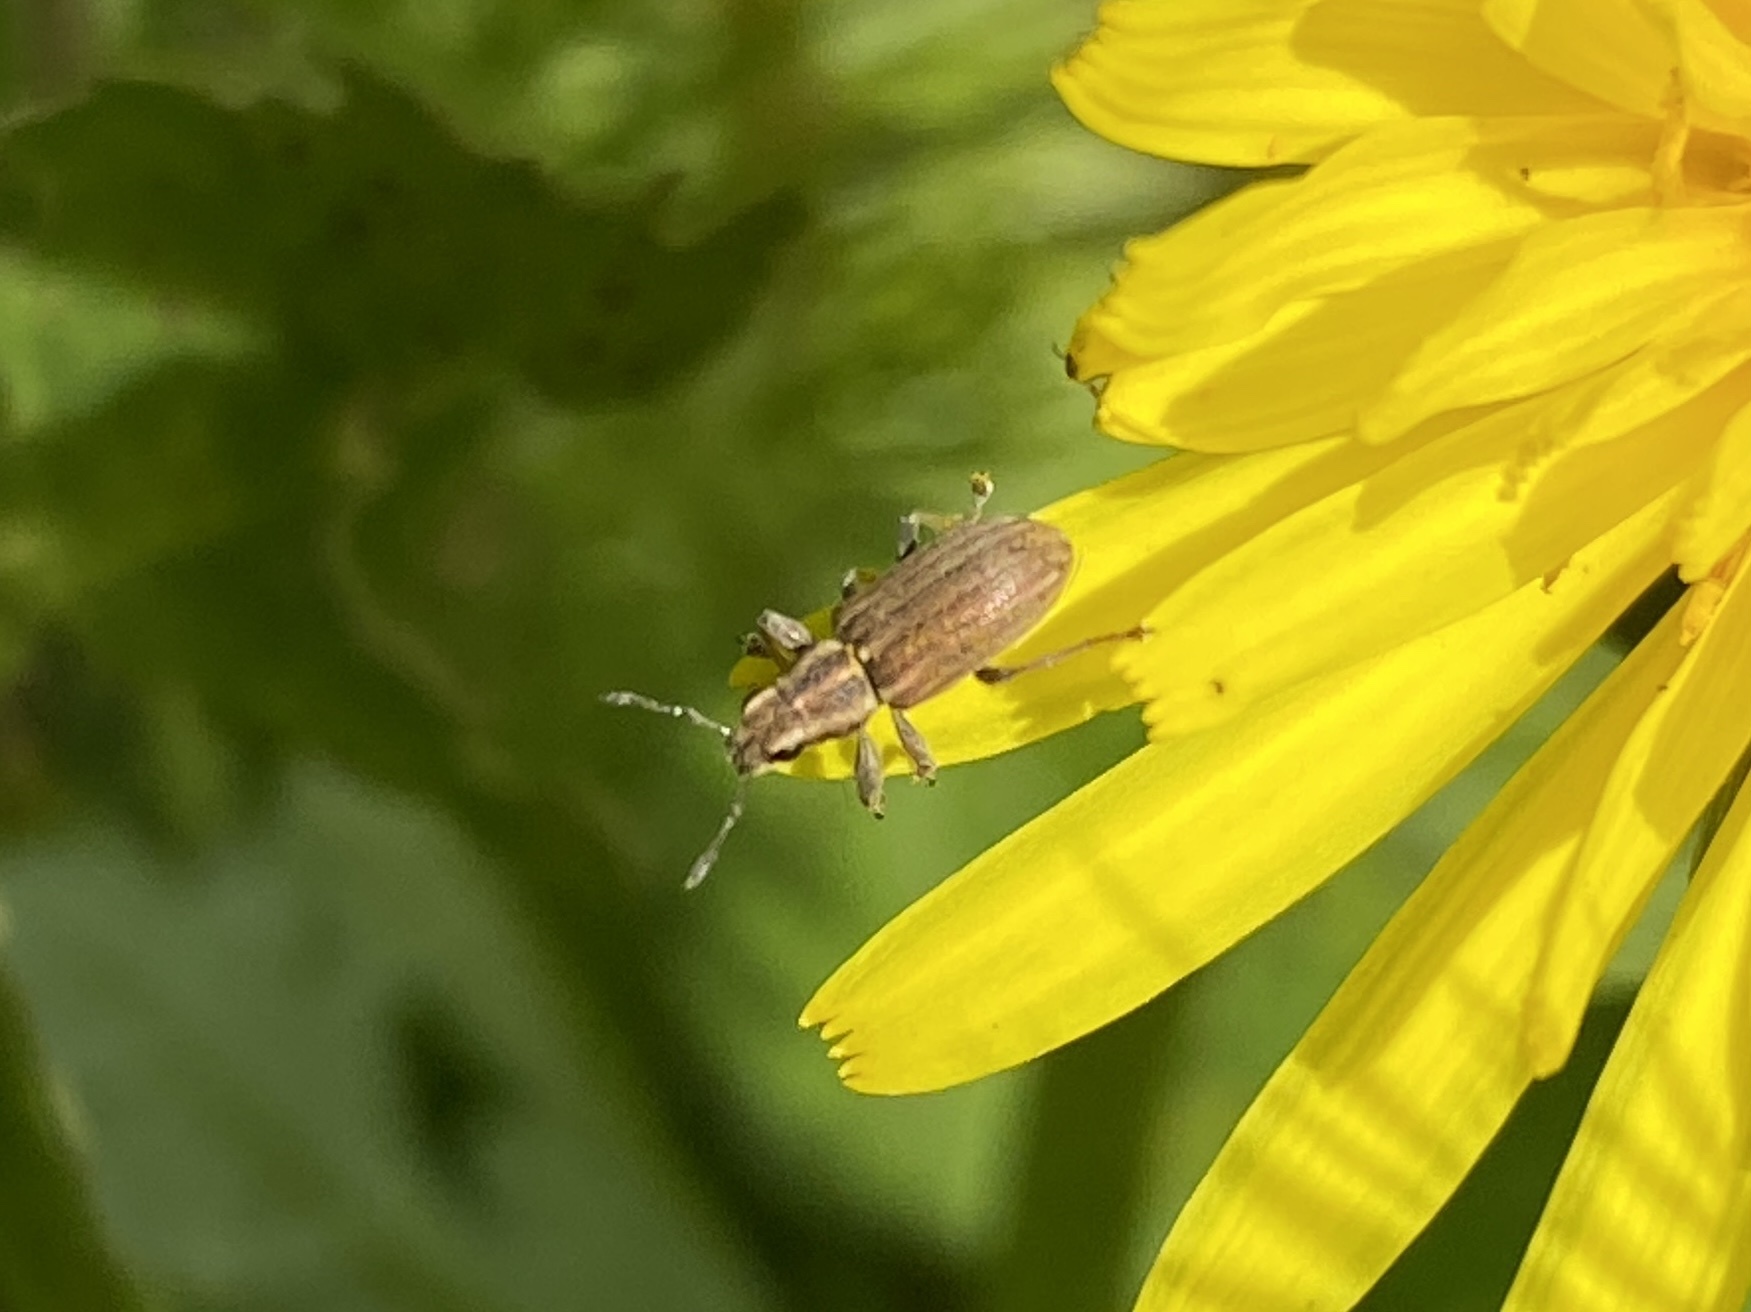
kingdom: Animalia
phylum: Arthropoda
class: Insecta
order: Coleoptera
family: Curculionidae
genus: Sitona
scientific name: Sitona lineatus
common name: Weevil
